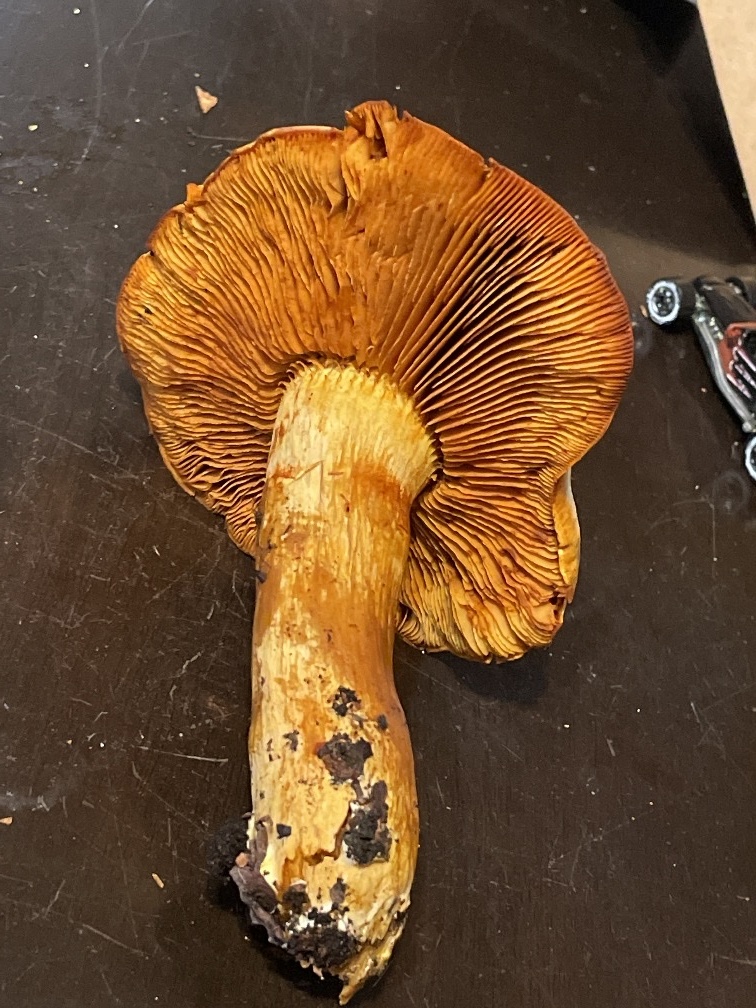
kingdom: Fungi
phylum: Basidiomycota
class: Agaricomycetes
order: Agaricales
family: Hymenogastraceae
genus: Gymnopilus
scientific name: Gymnopilus ventricosus
